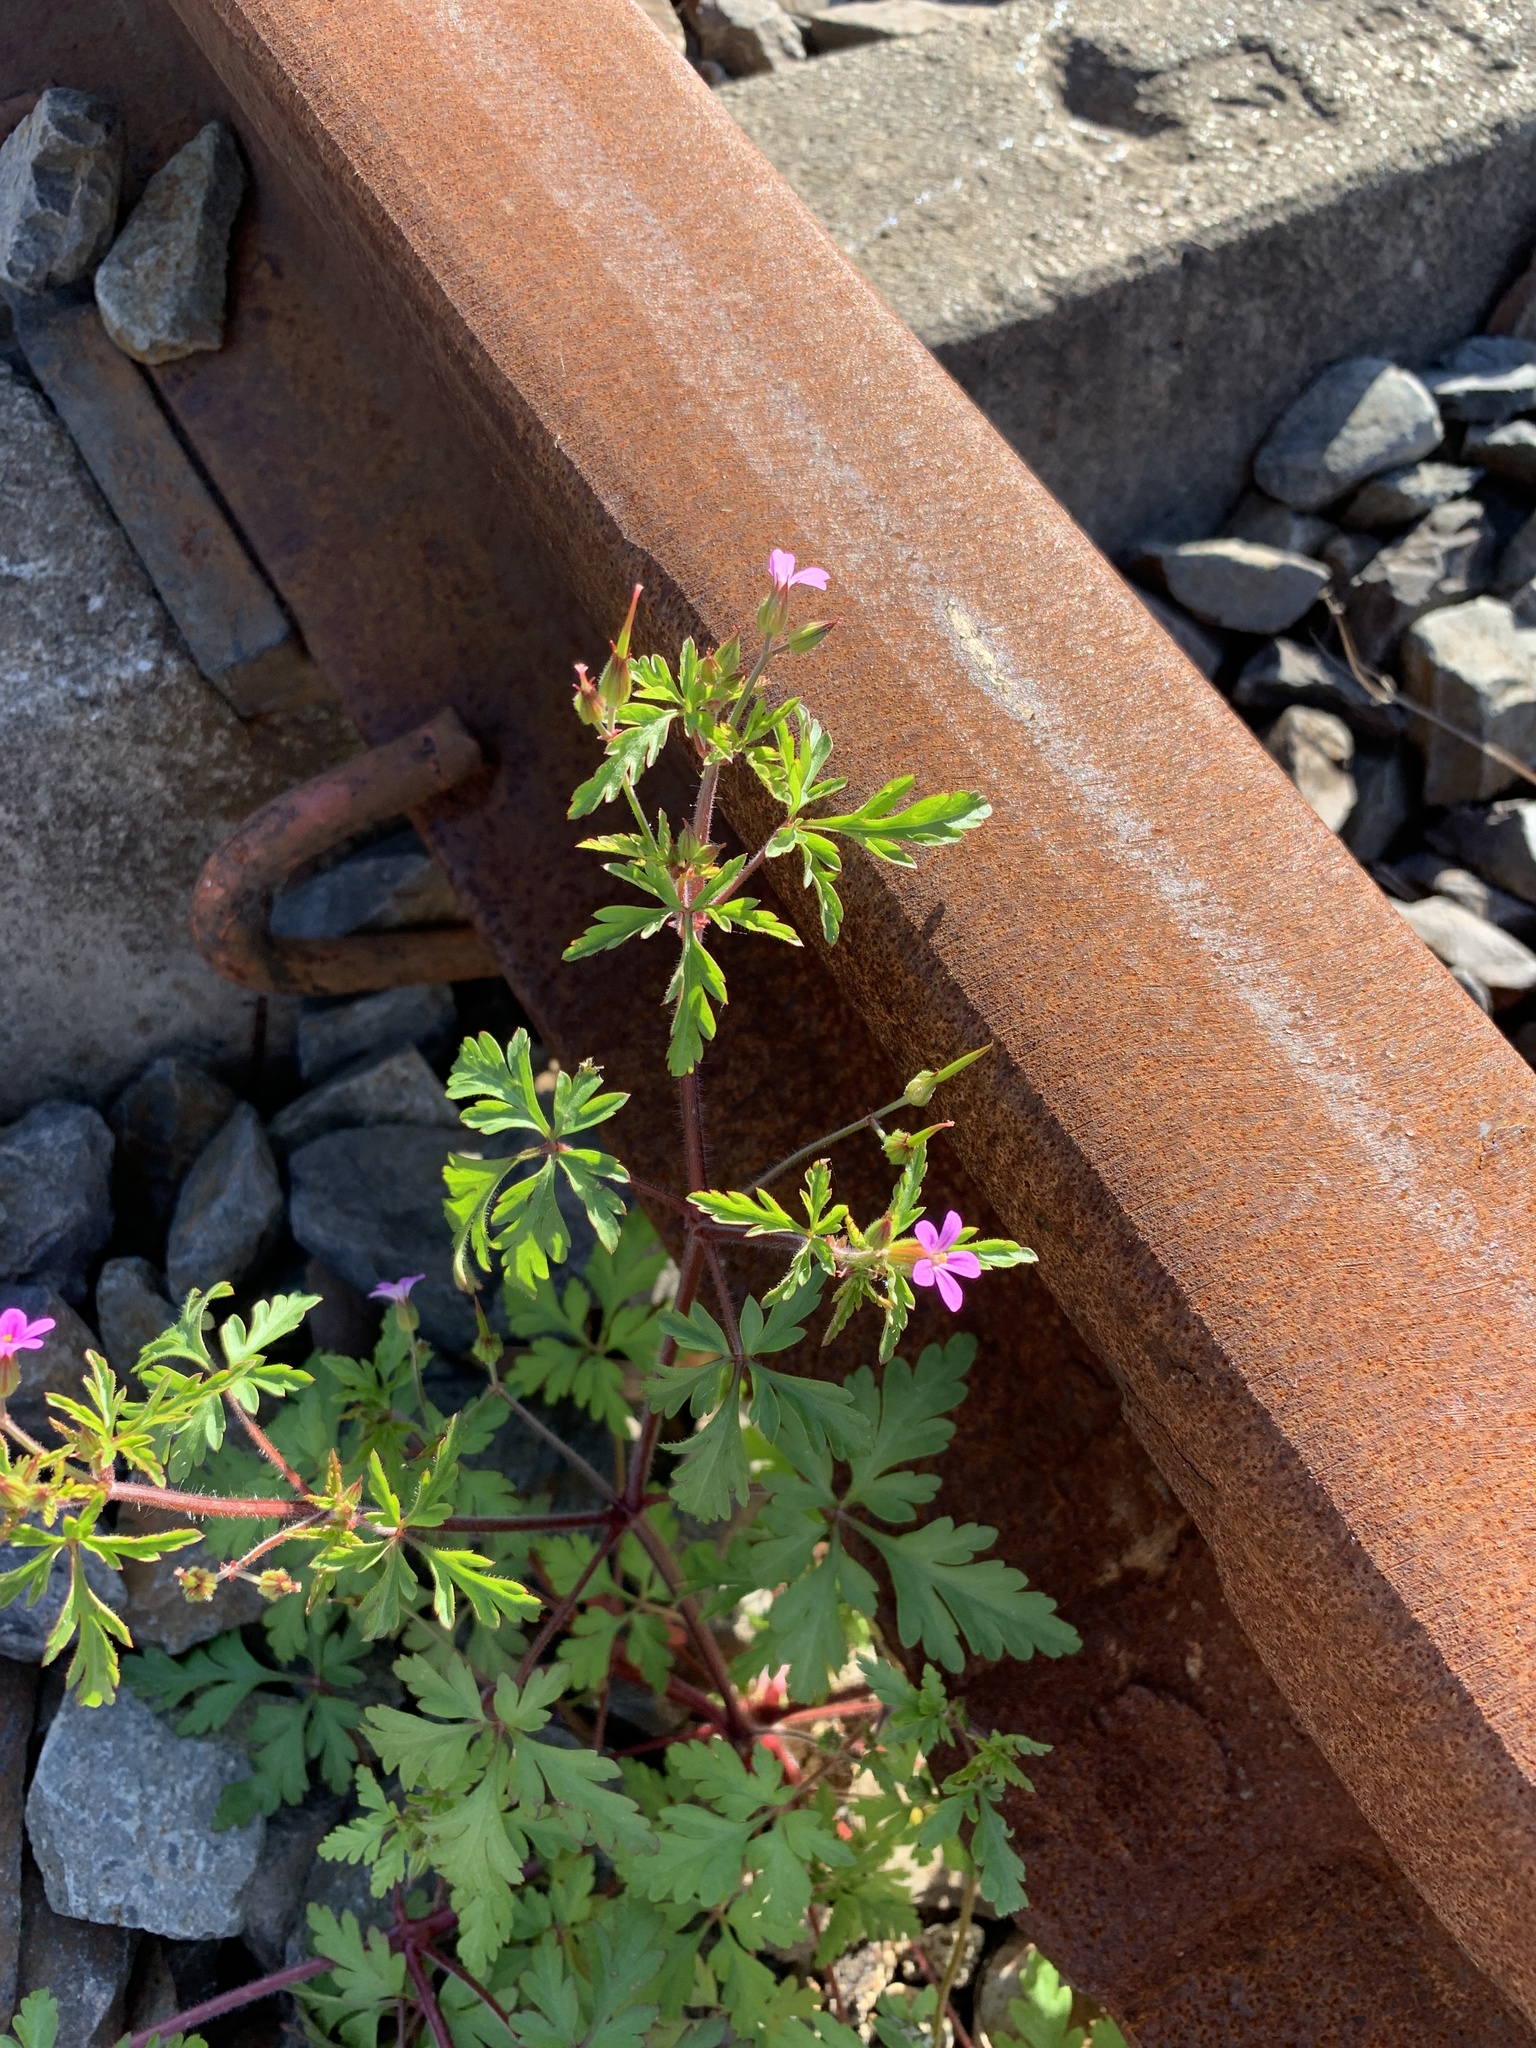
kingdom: Plantae
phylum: Tracheophyta
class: Magnoliopsida
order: Geraniales
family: Geraniaceae
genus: Geranium
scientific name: Geranium purpureum
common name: Little-robin
